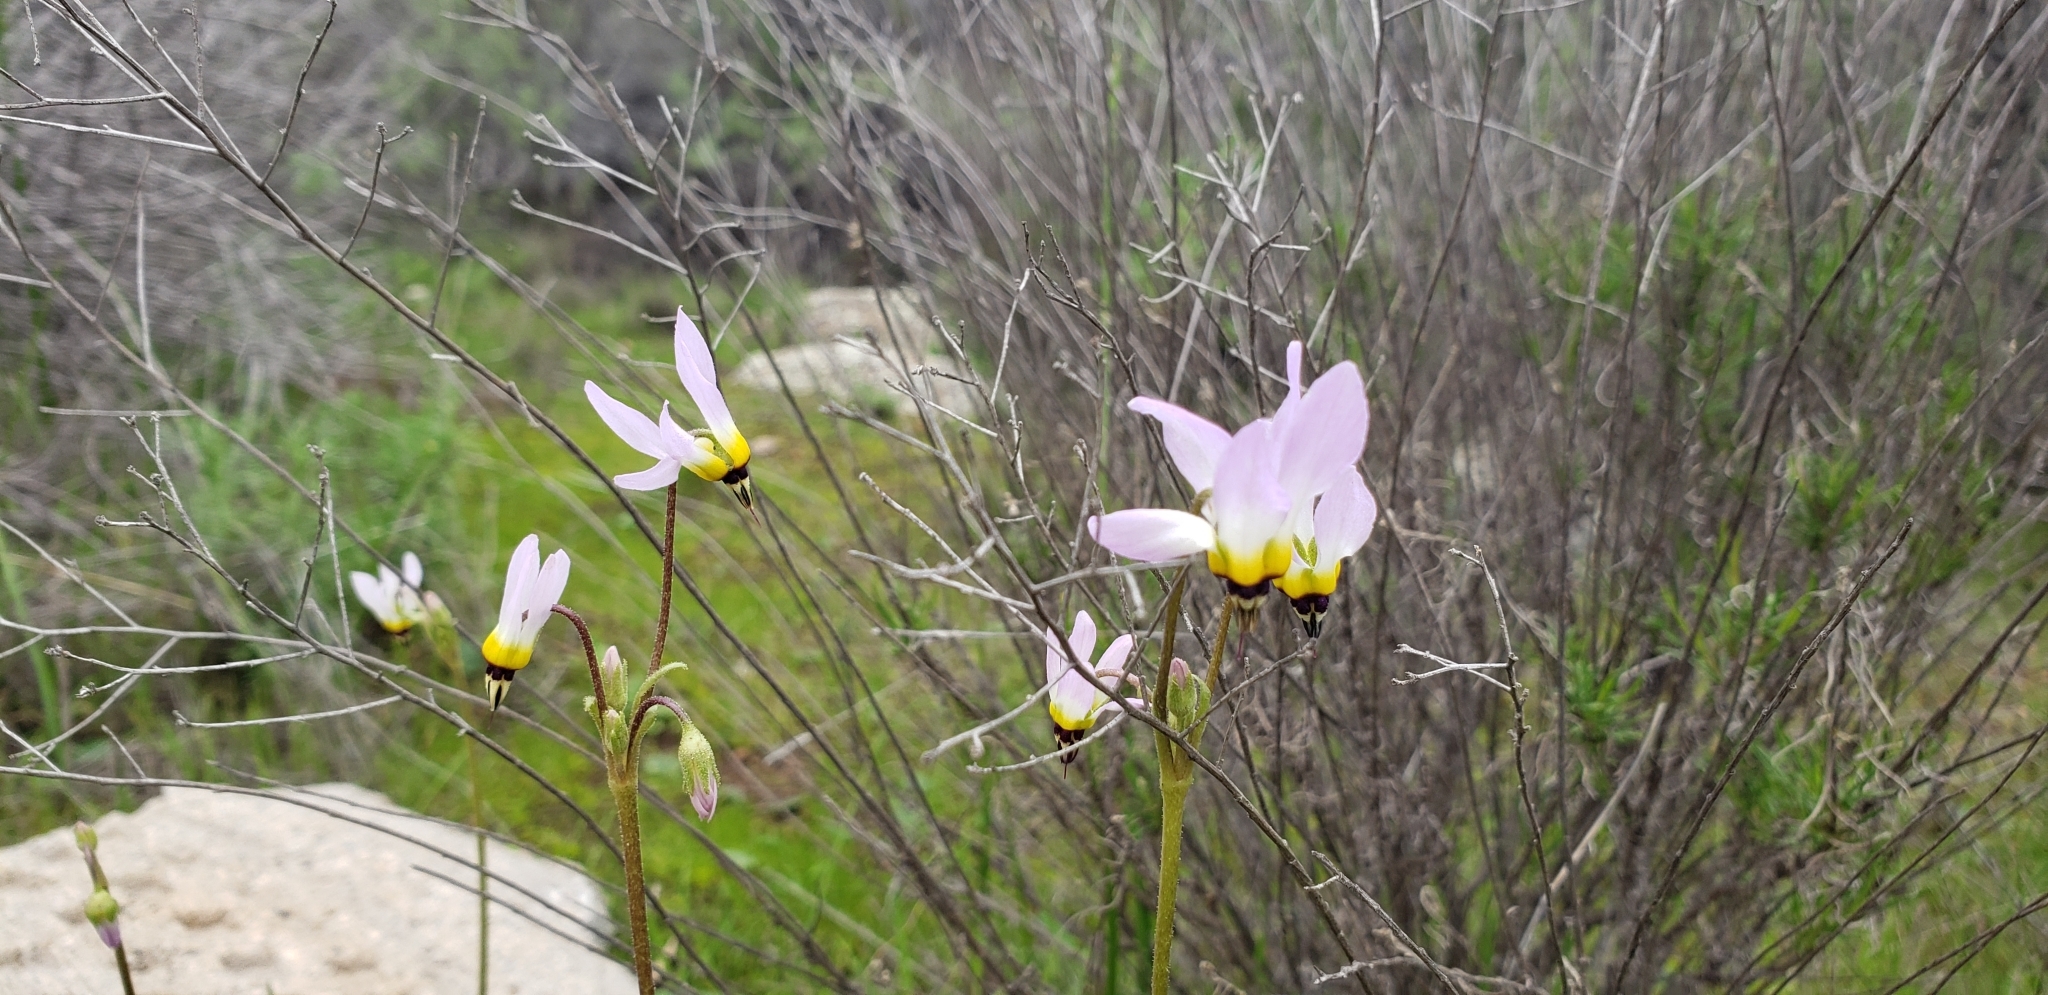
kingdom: Plantae
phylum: Tracheophyta
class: Magnoliopsida
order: Ericales
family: Primulaceae
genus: Dodecatheon
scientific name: Dodecatheon clevelandii
